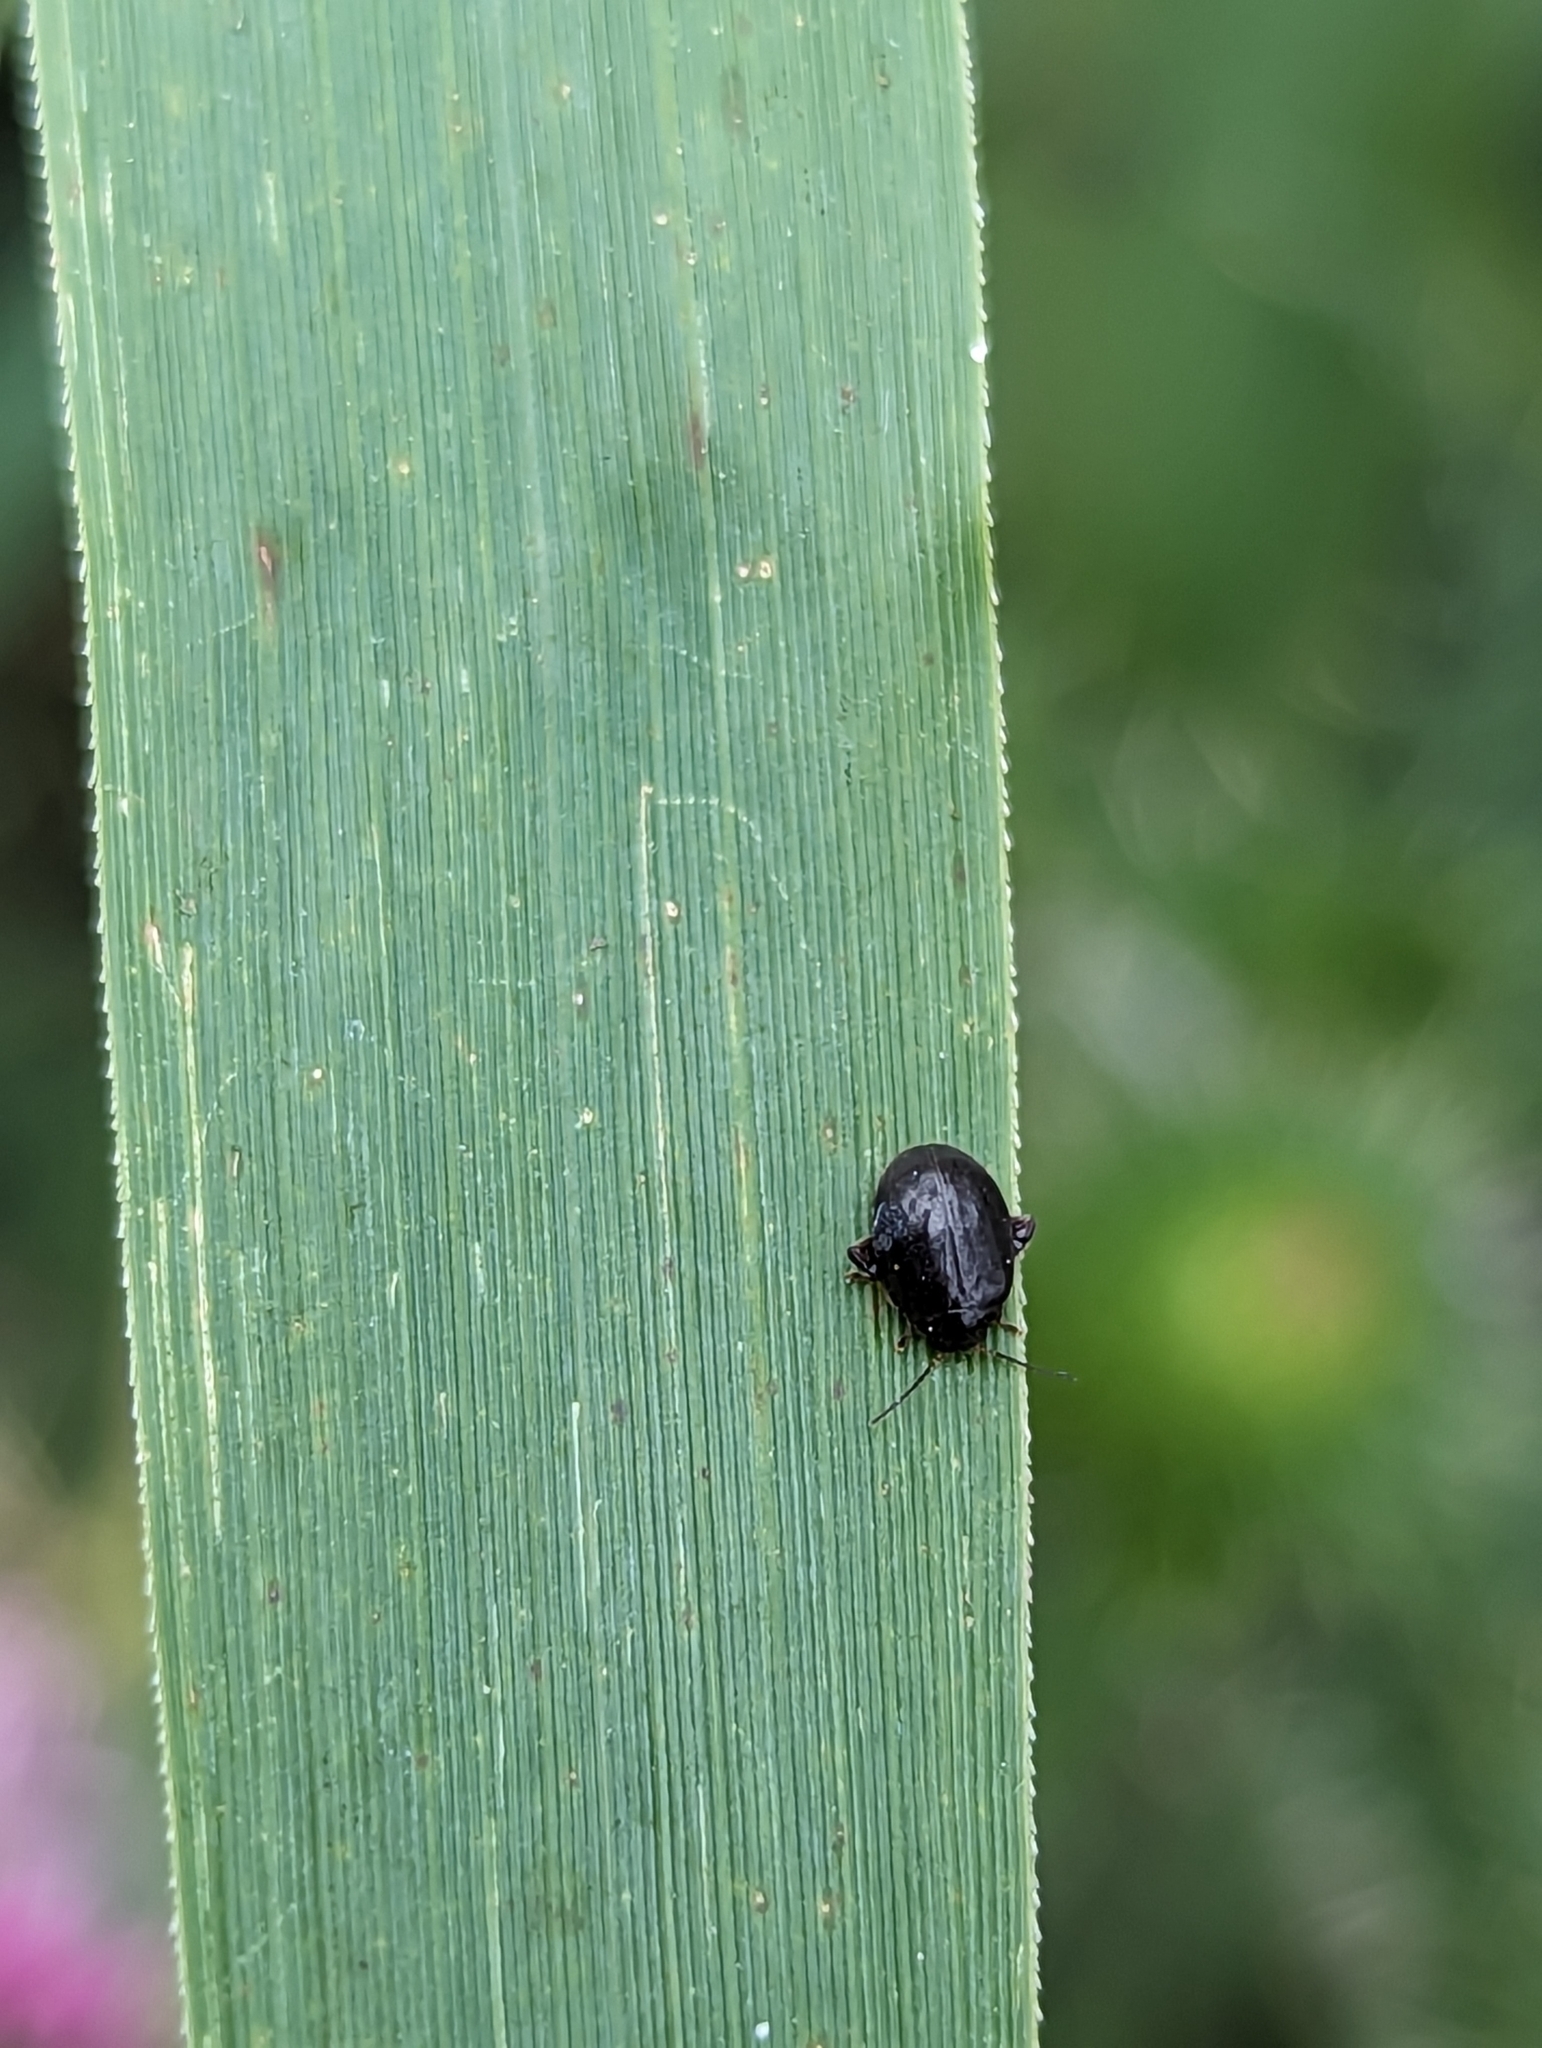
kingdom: Animalia
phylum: Arthropoda
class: Insecta
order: Coleoptera
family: Scirtidae
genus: Scirtes
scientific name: Scirtes hemisphaericus
